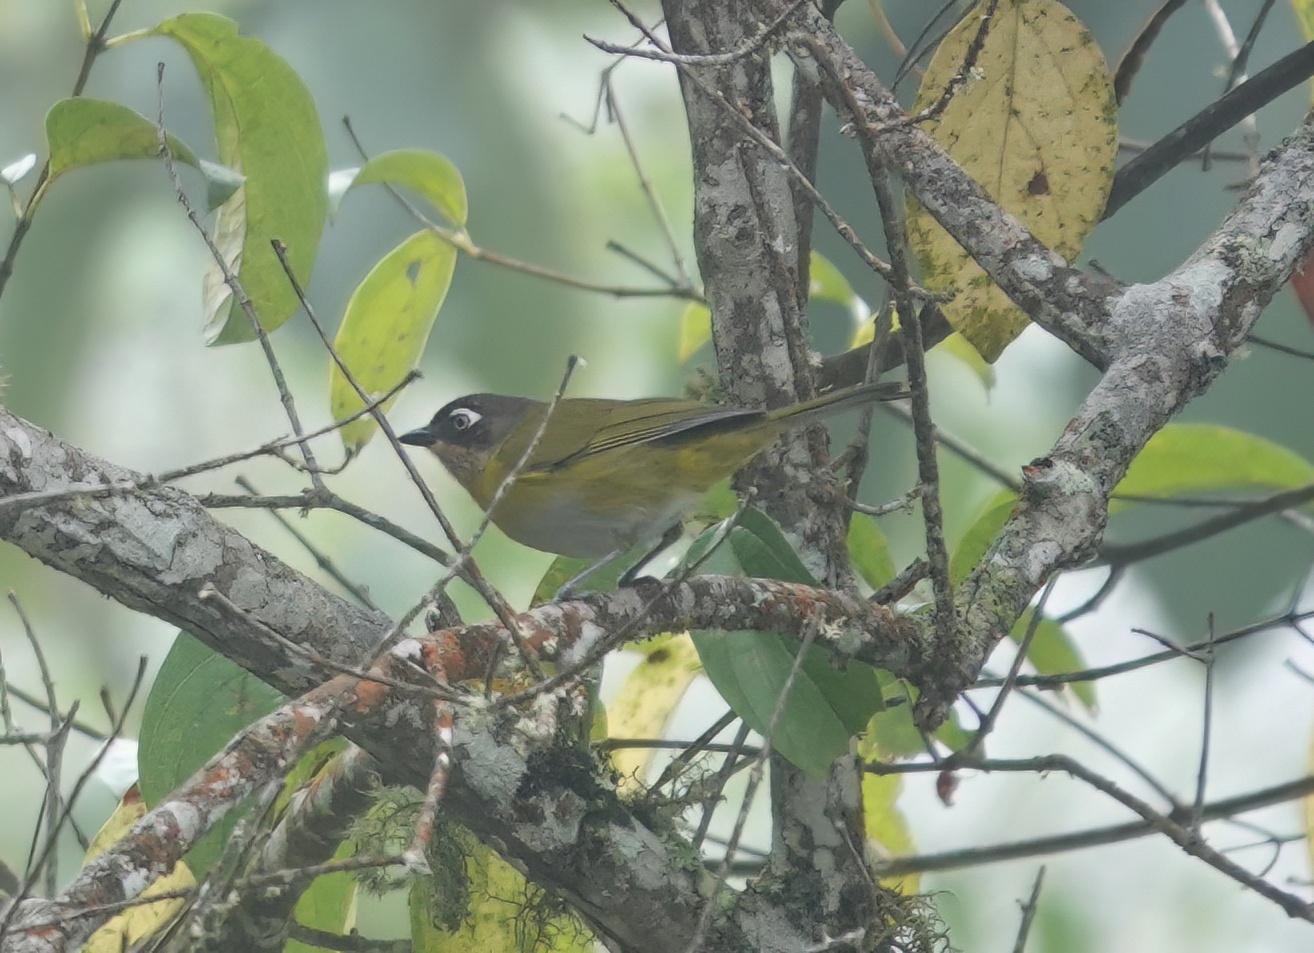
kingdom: Animalia
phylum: Chordata
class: Aves
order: Passeriformes
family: Passerellidae
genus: Chlorospingus
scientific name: Chlorospingus flavopectus
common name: Common chlorospingus
